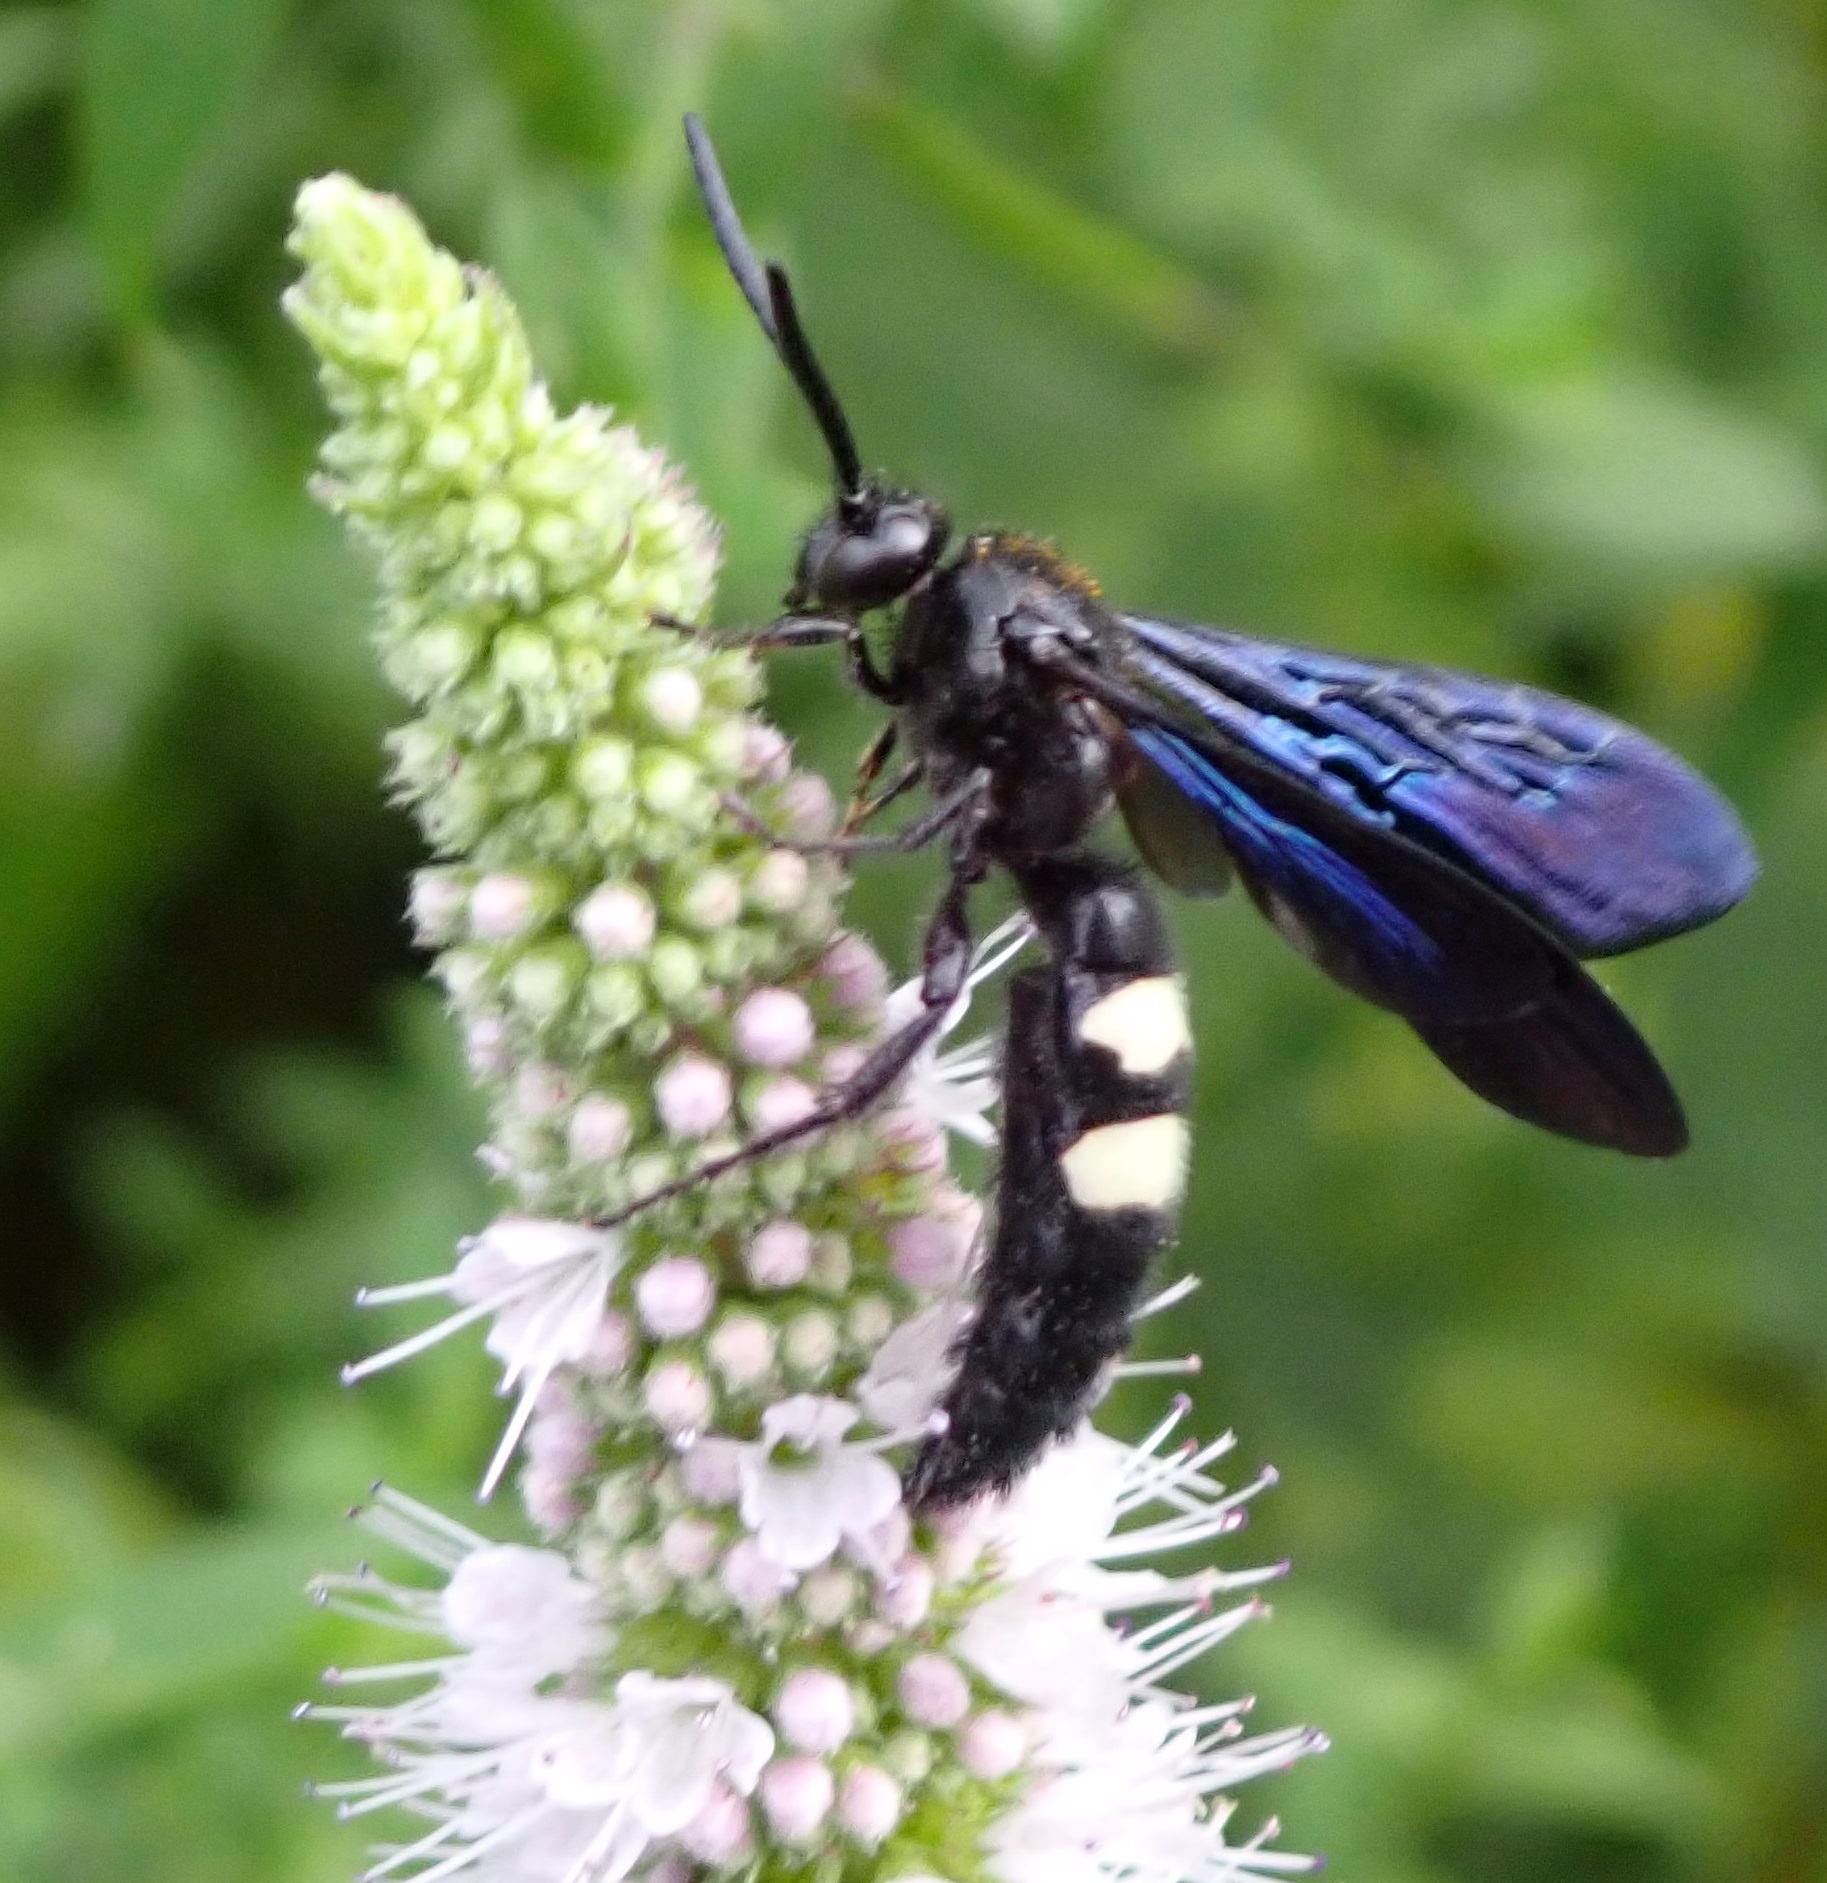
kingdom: Animalia
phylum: Arthropoda
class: Insecta
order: Hymenoptera
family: Scoliidae
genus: Scolia
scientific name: Scolia bicincta
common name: Double-banded scoliid wasp
